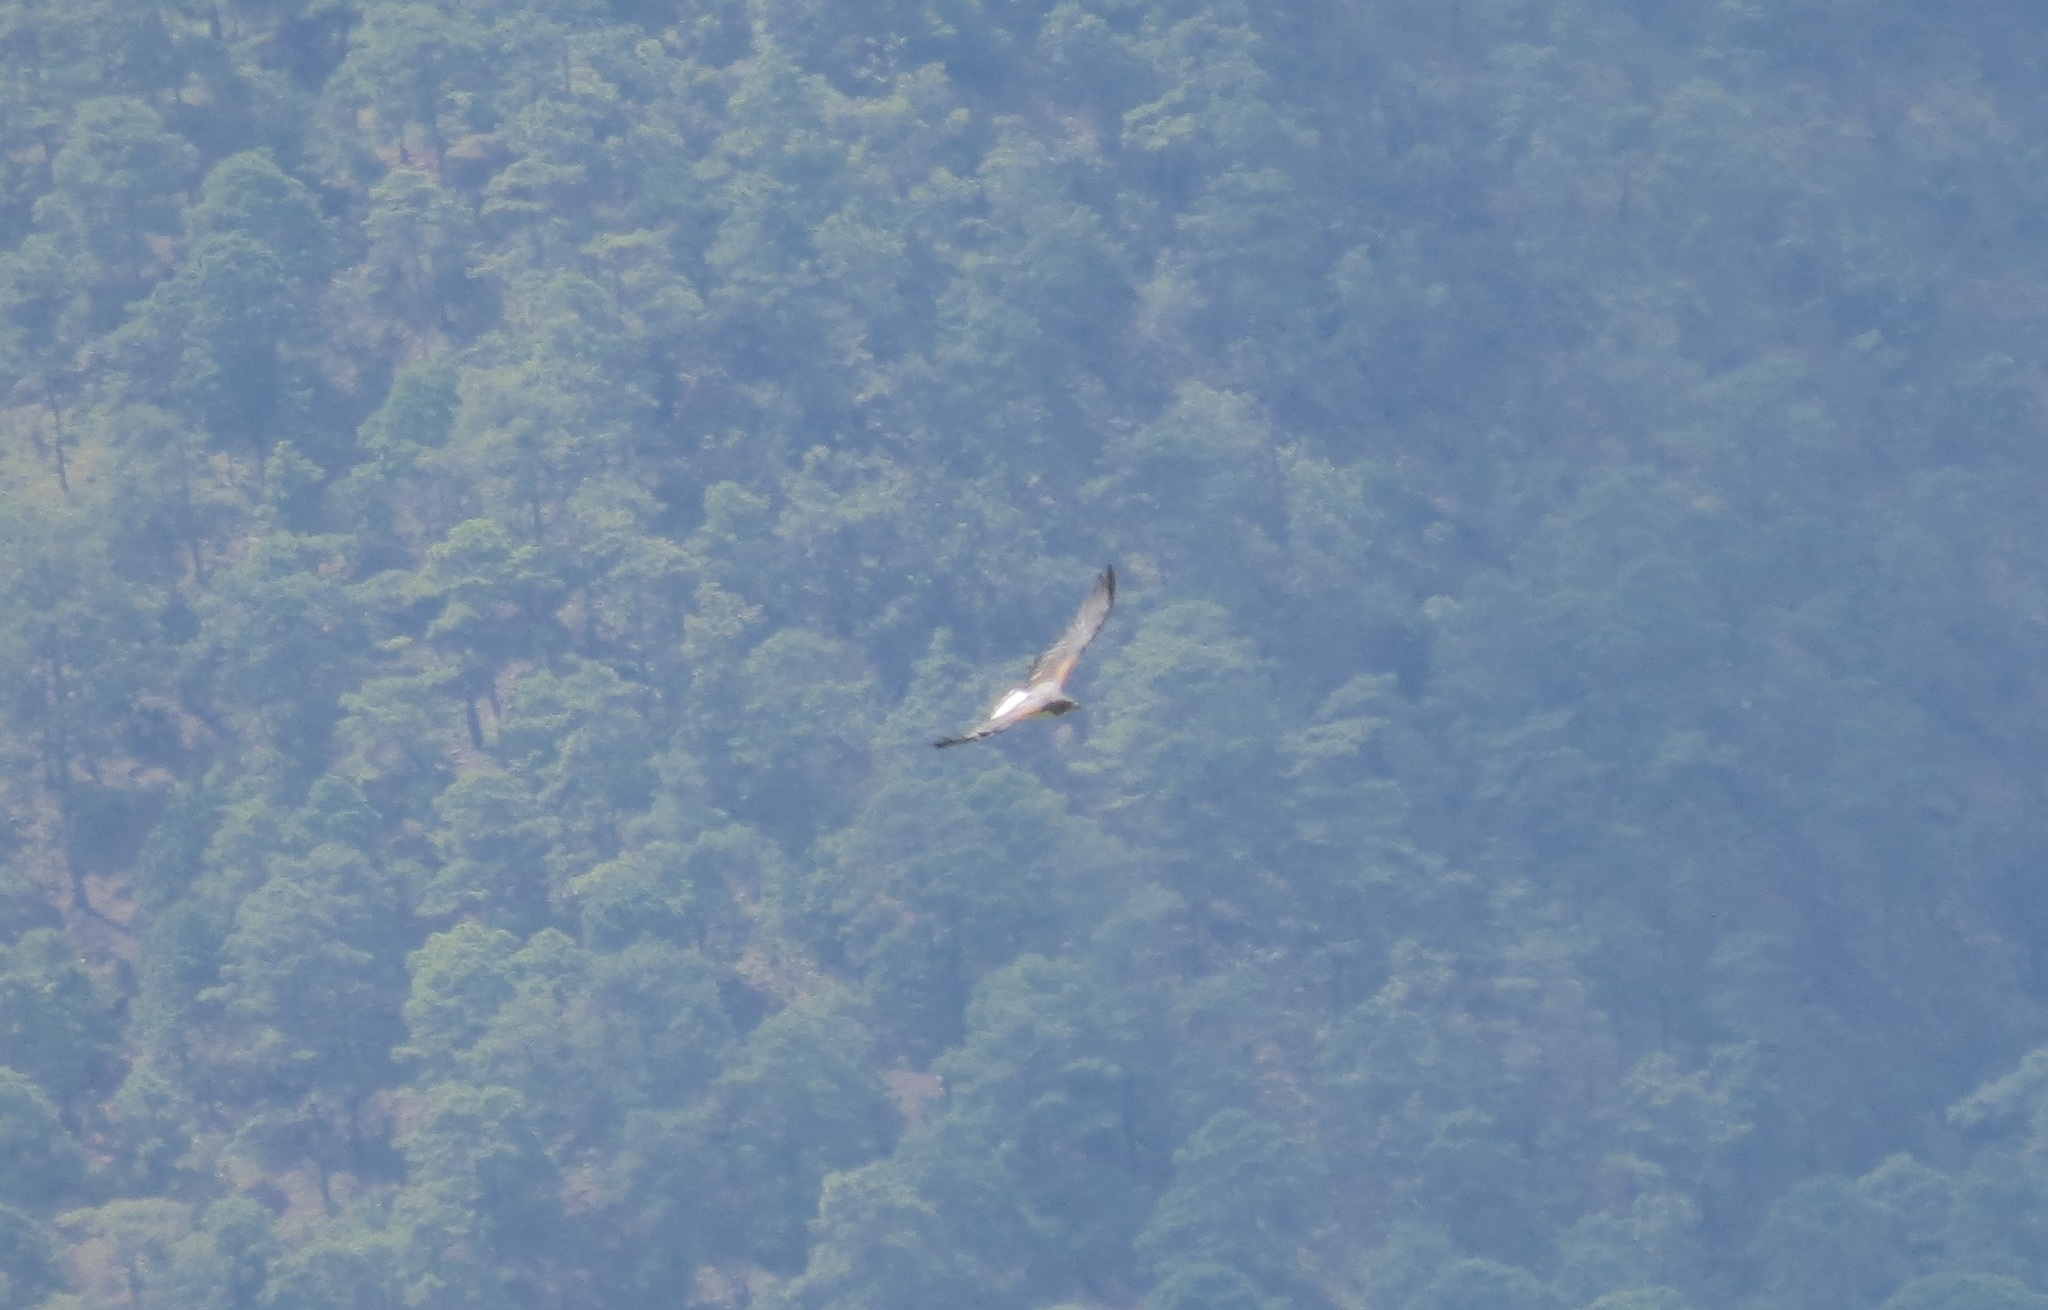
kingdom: Animalia
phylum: Chordata
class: Aves
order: Accipitriformes
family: Accipitridae
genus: Buteo
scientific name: Buteo albicaudatus
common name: White-tailed hawk
